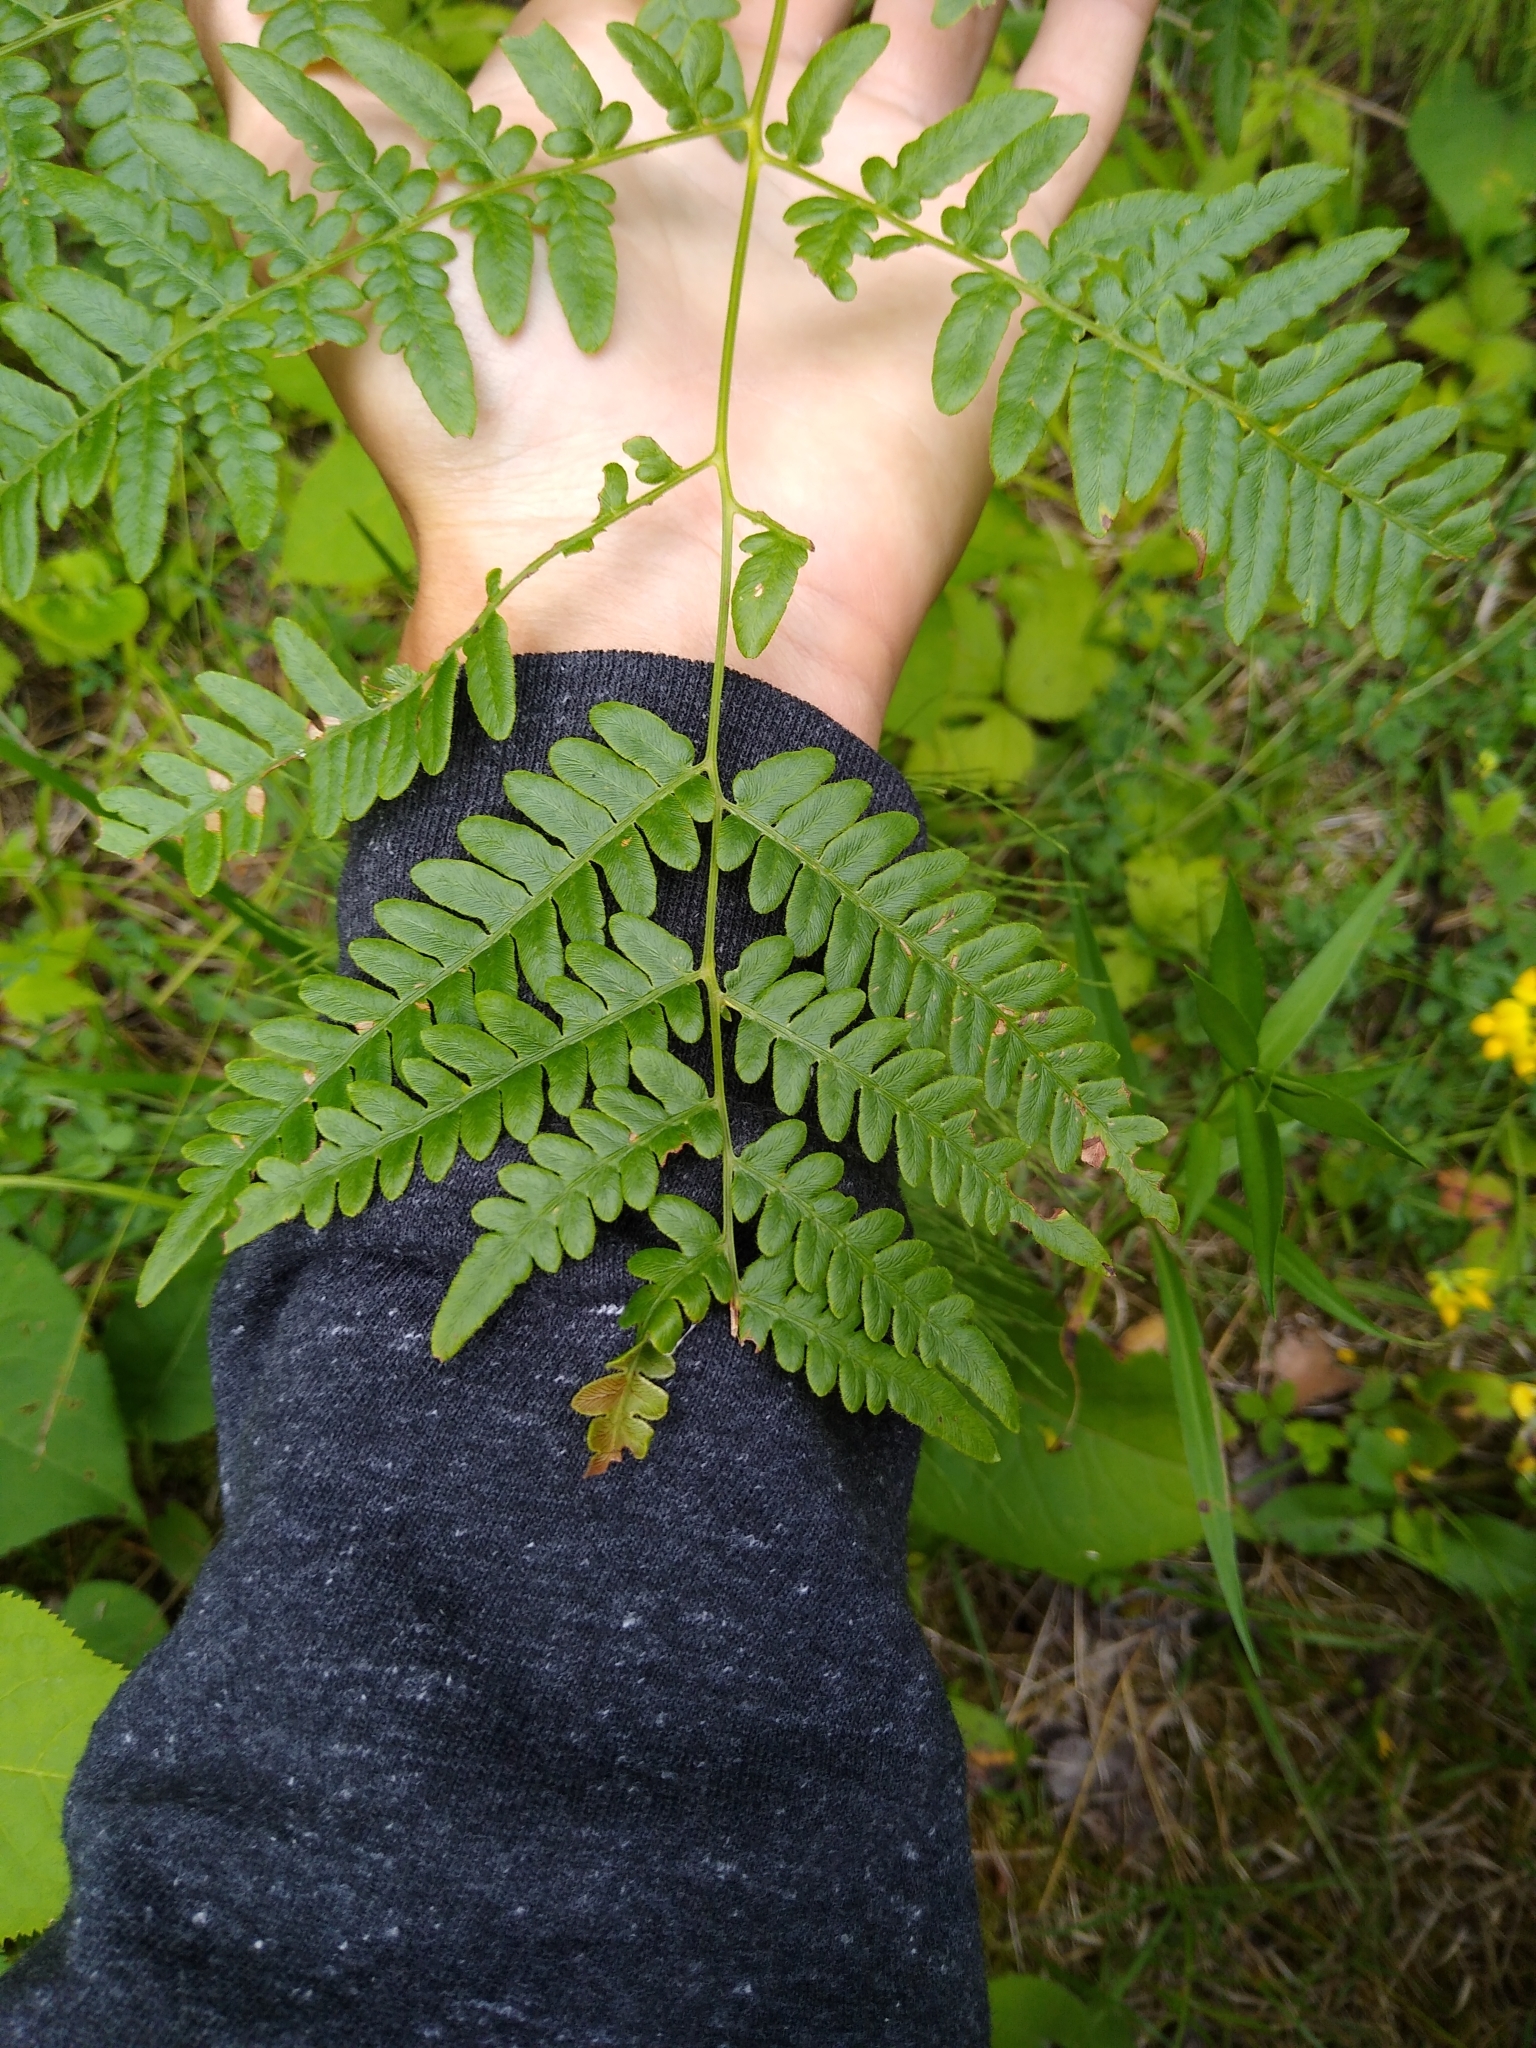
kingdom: Plantae
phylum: Tracheophyta
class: Polypodiopsida
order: Polypodiales
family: Dennstaedtiaceae
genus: Pteridium
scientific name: Pteridium aquilinum
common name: Bracken
